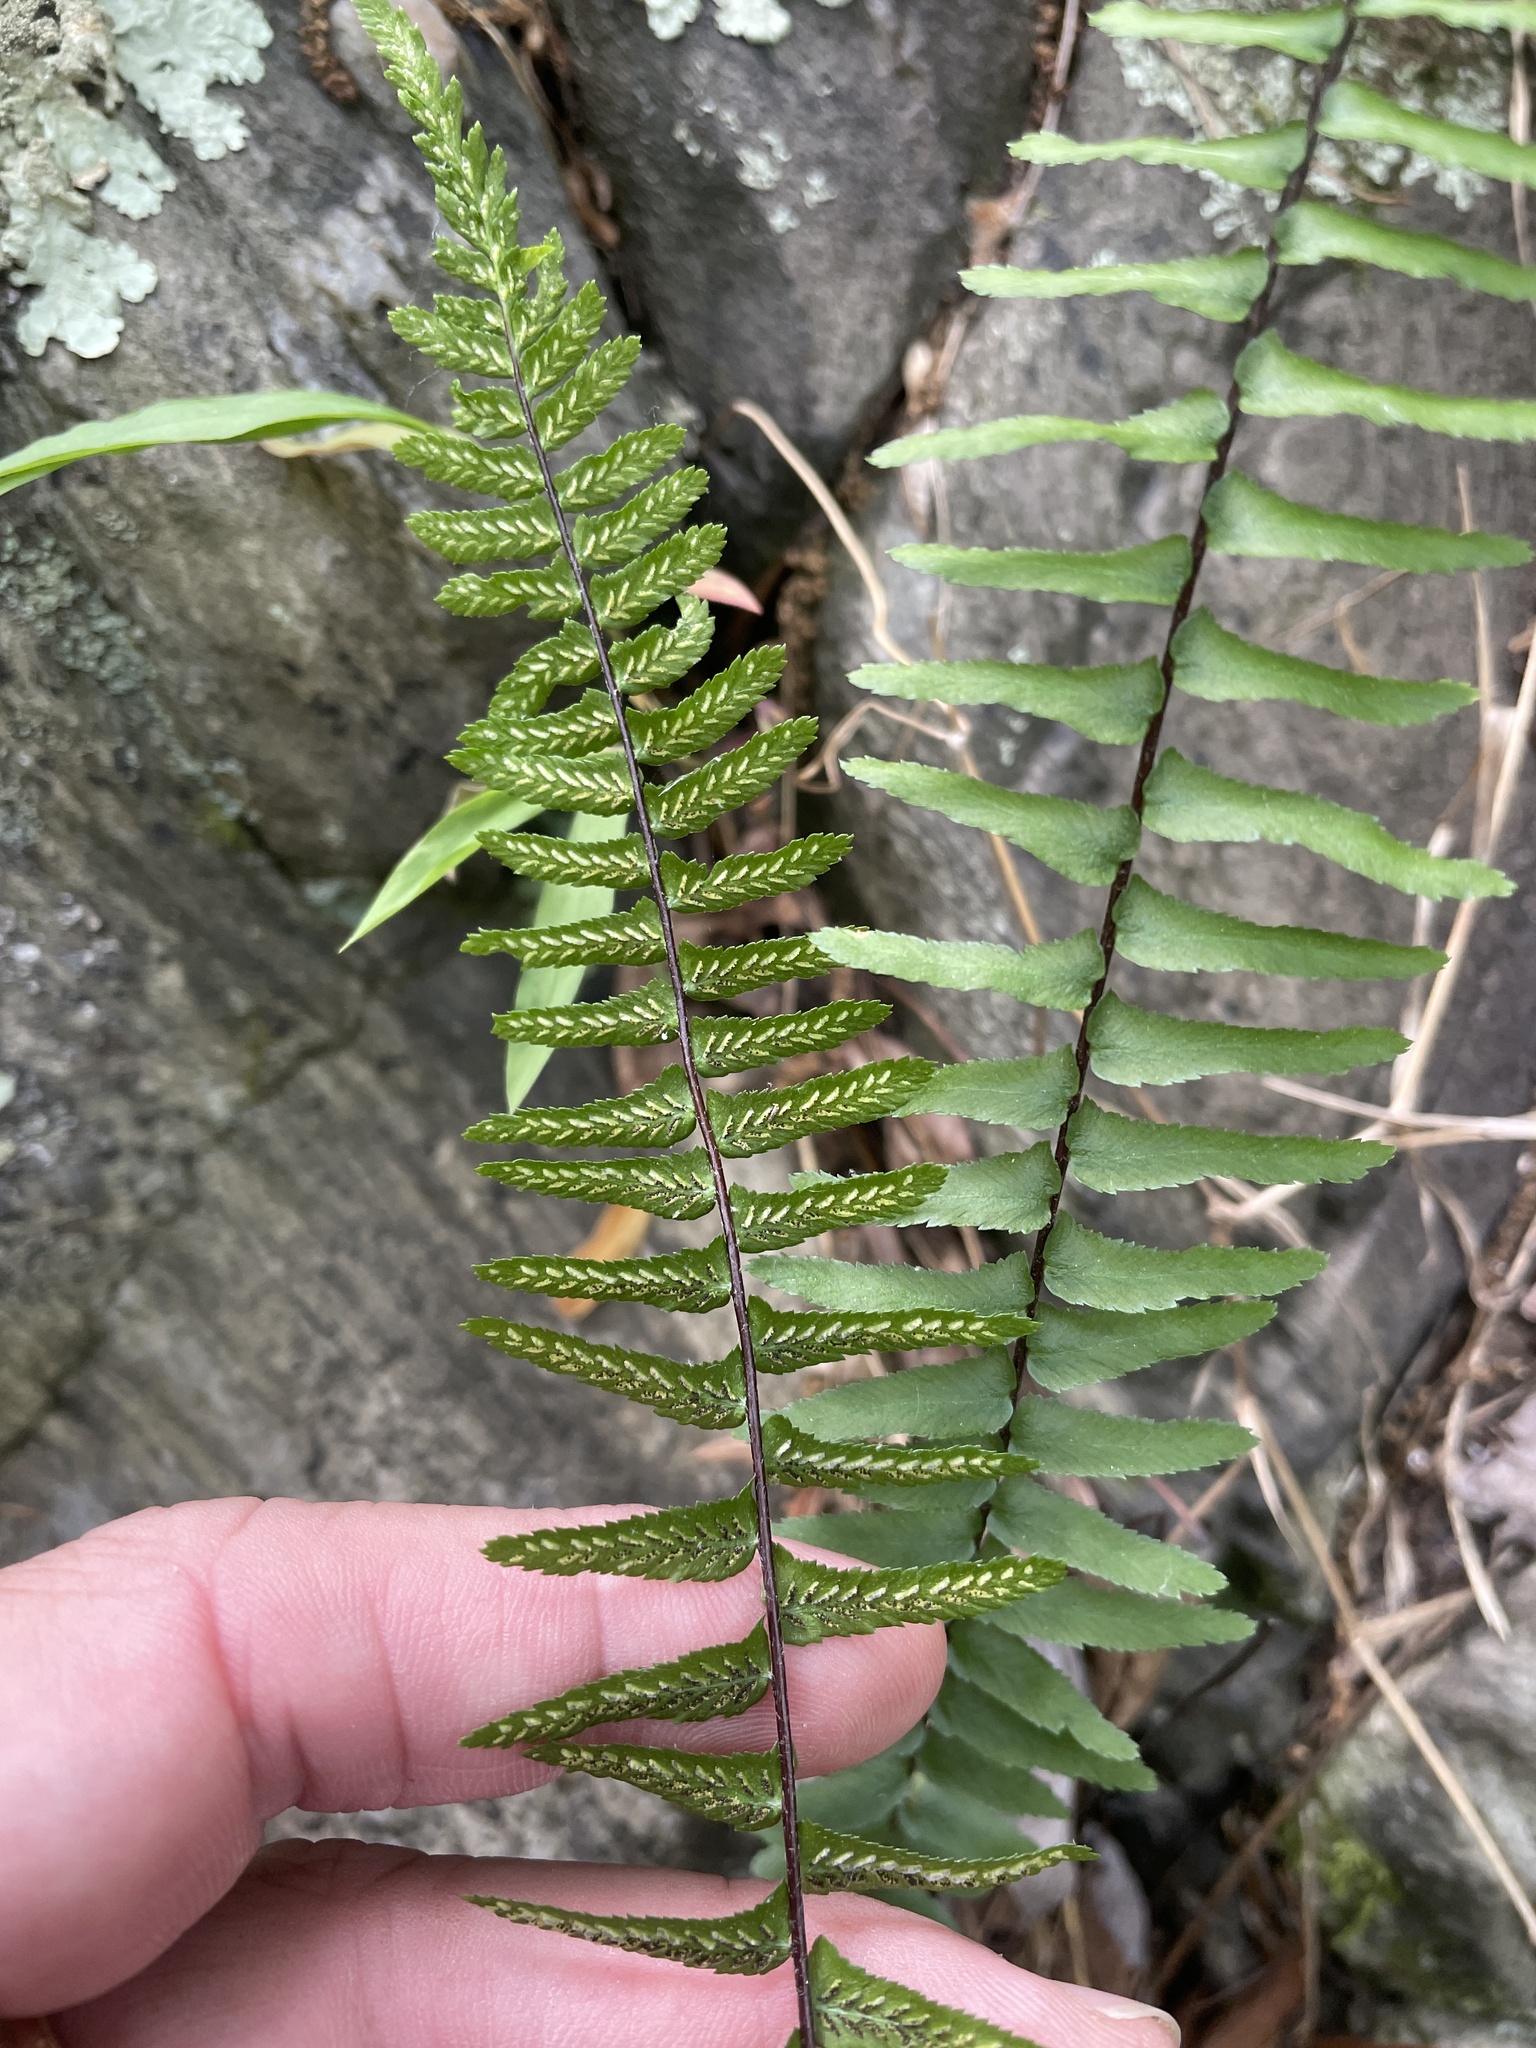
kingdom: Plantae
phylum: Tracheophyta
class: Polypodiopsida
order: Polypodiales
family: Aspleniaceae
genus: Asplenium
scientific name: Asplenium platyneuron
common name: Ebony spleenwort
